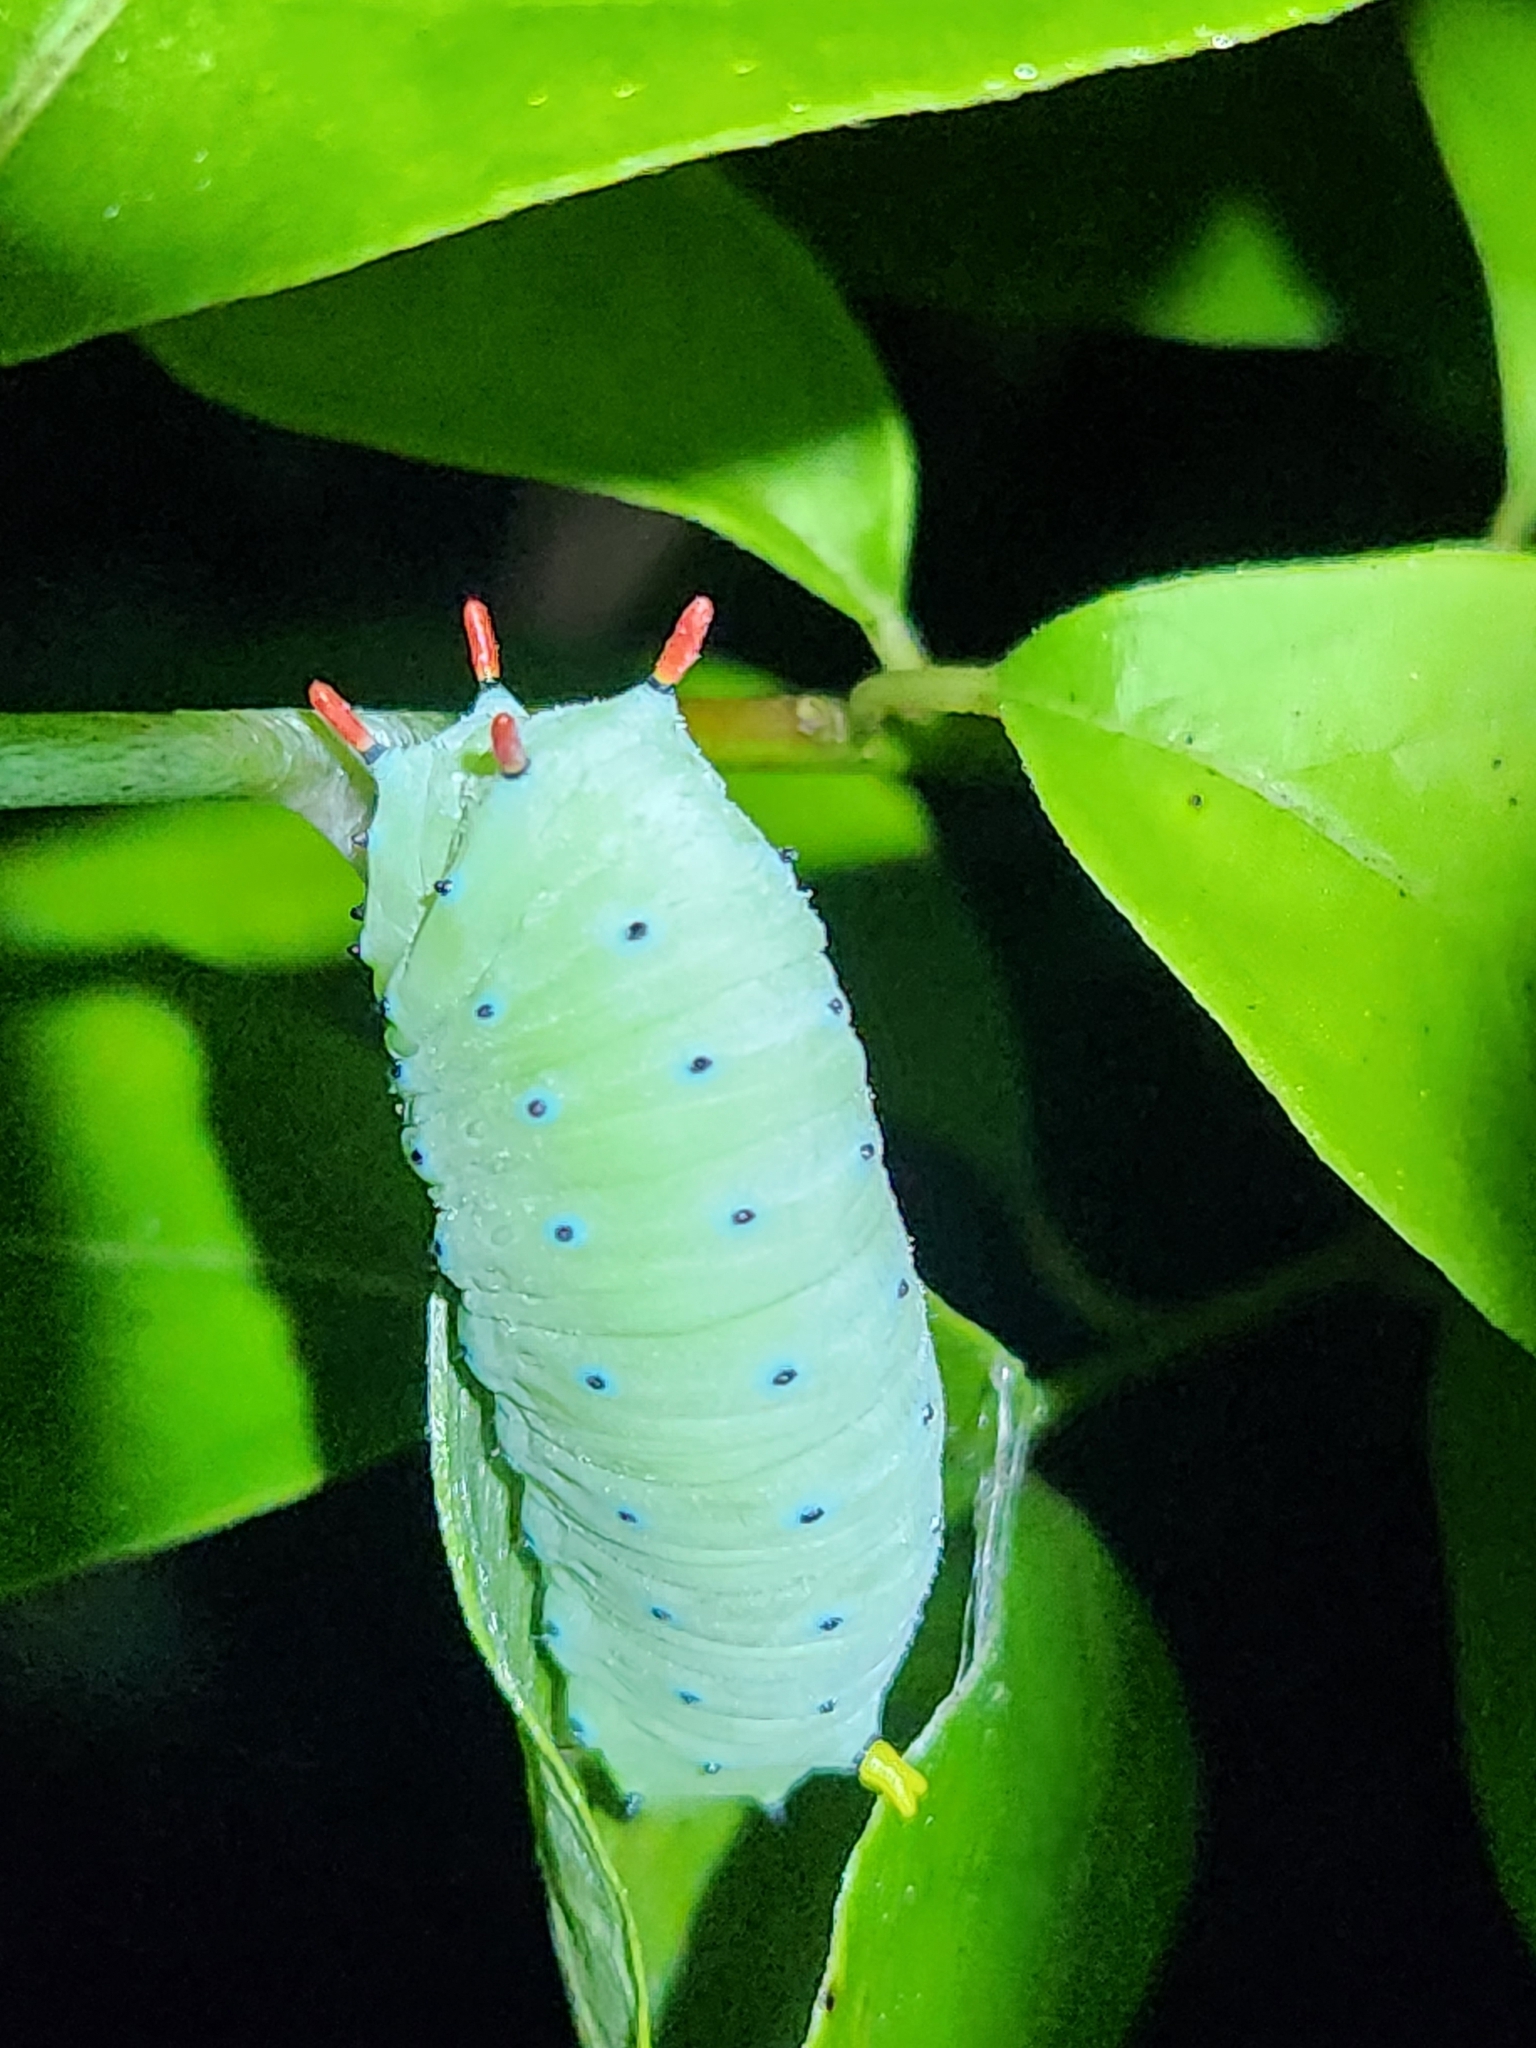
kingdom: Animalia
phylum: Arthropoda
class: Insecta
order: Lepidoptera
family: Saturniidae
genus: Callosamia
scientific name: Callosamia promethea
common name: Promethea silkmoth
